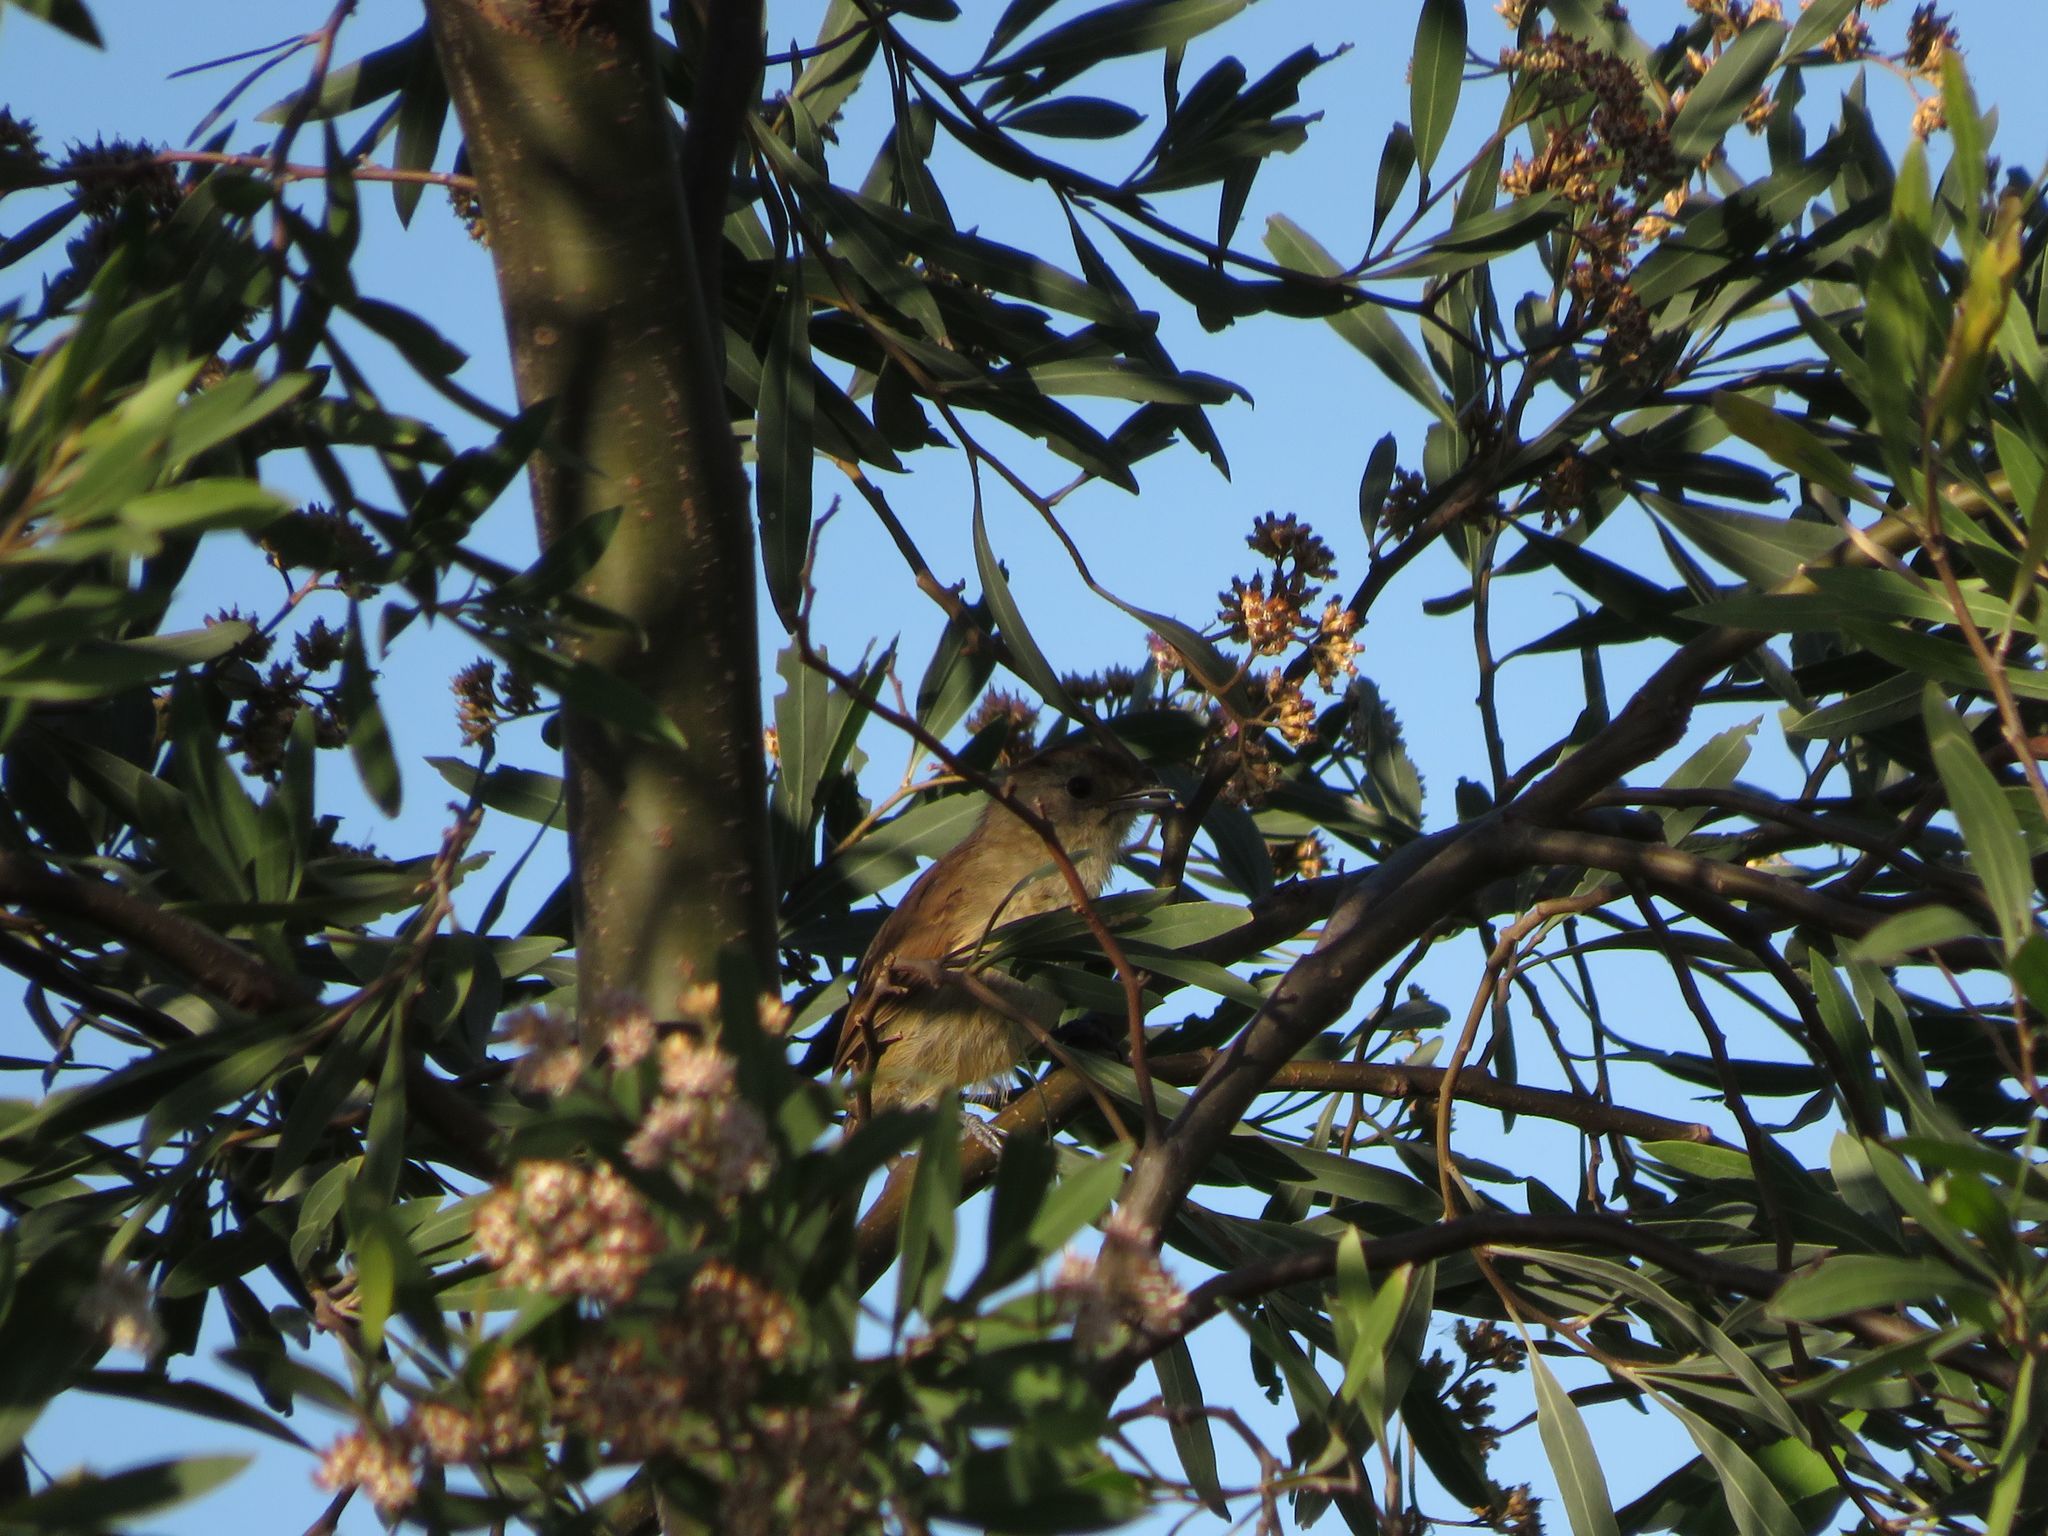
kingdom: Animalia
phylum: Chordata
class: Aves
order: Passeriformes
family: Thamnophilidae
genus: Thamnophilus
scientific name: Thamnophilus ruficapillus
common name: Rufous-capped antshrike
